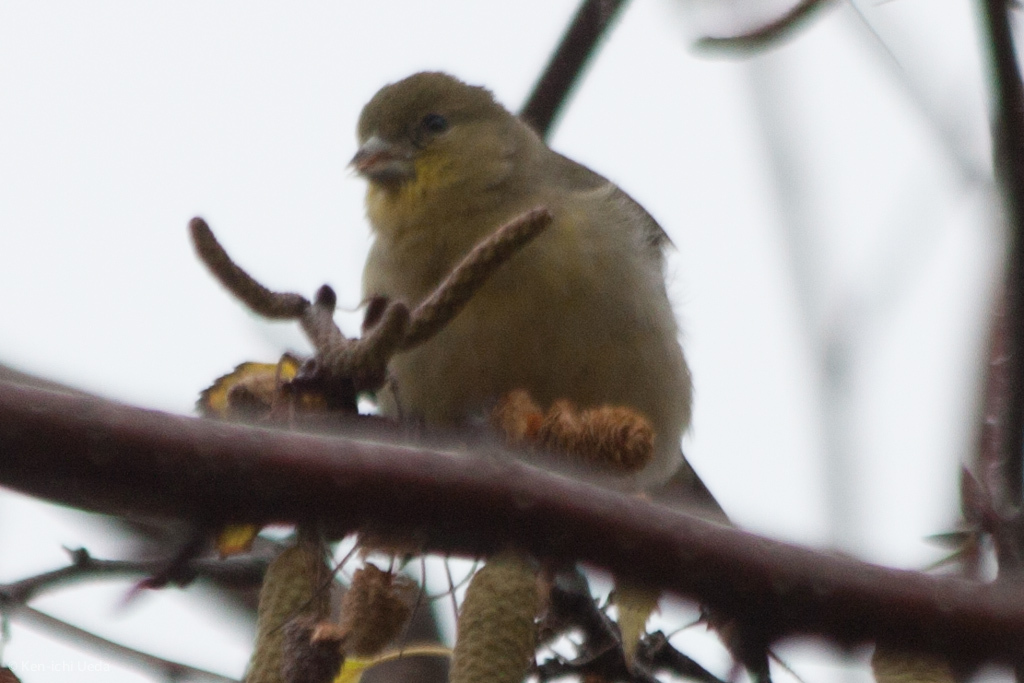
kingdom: Animalia
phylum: Chordata
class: Aves
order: Passeriformes
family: Fringillidae
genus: Spinus
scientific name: Spinus psaltria
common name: Lesser goldfinch
